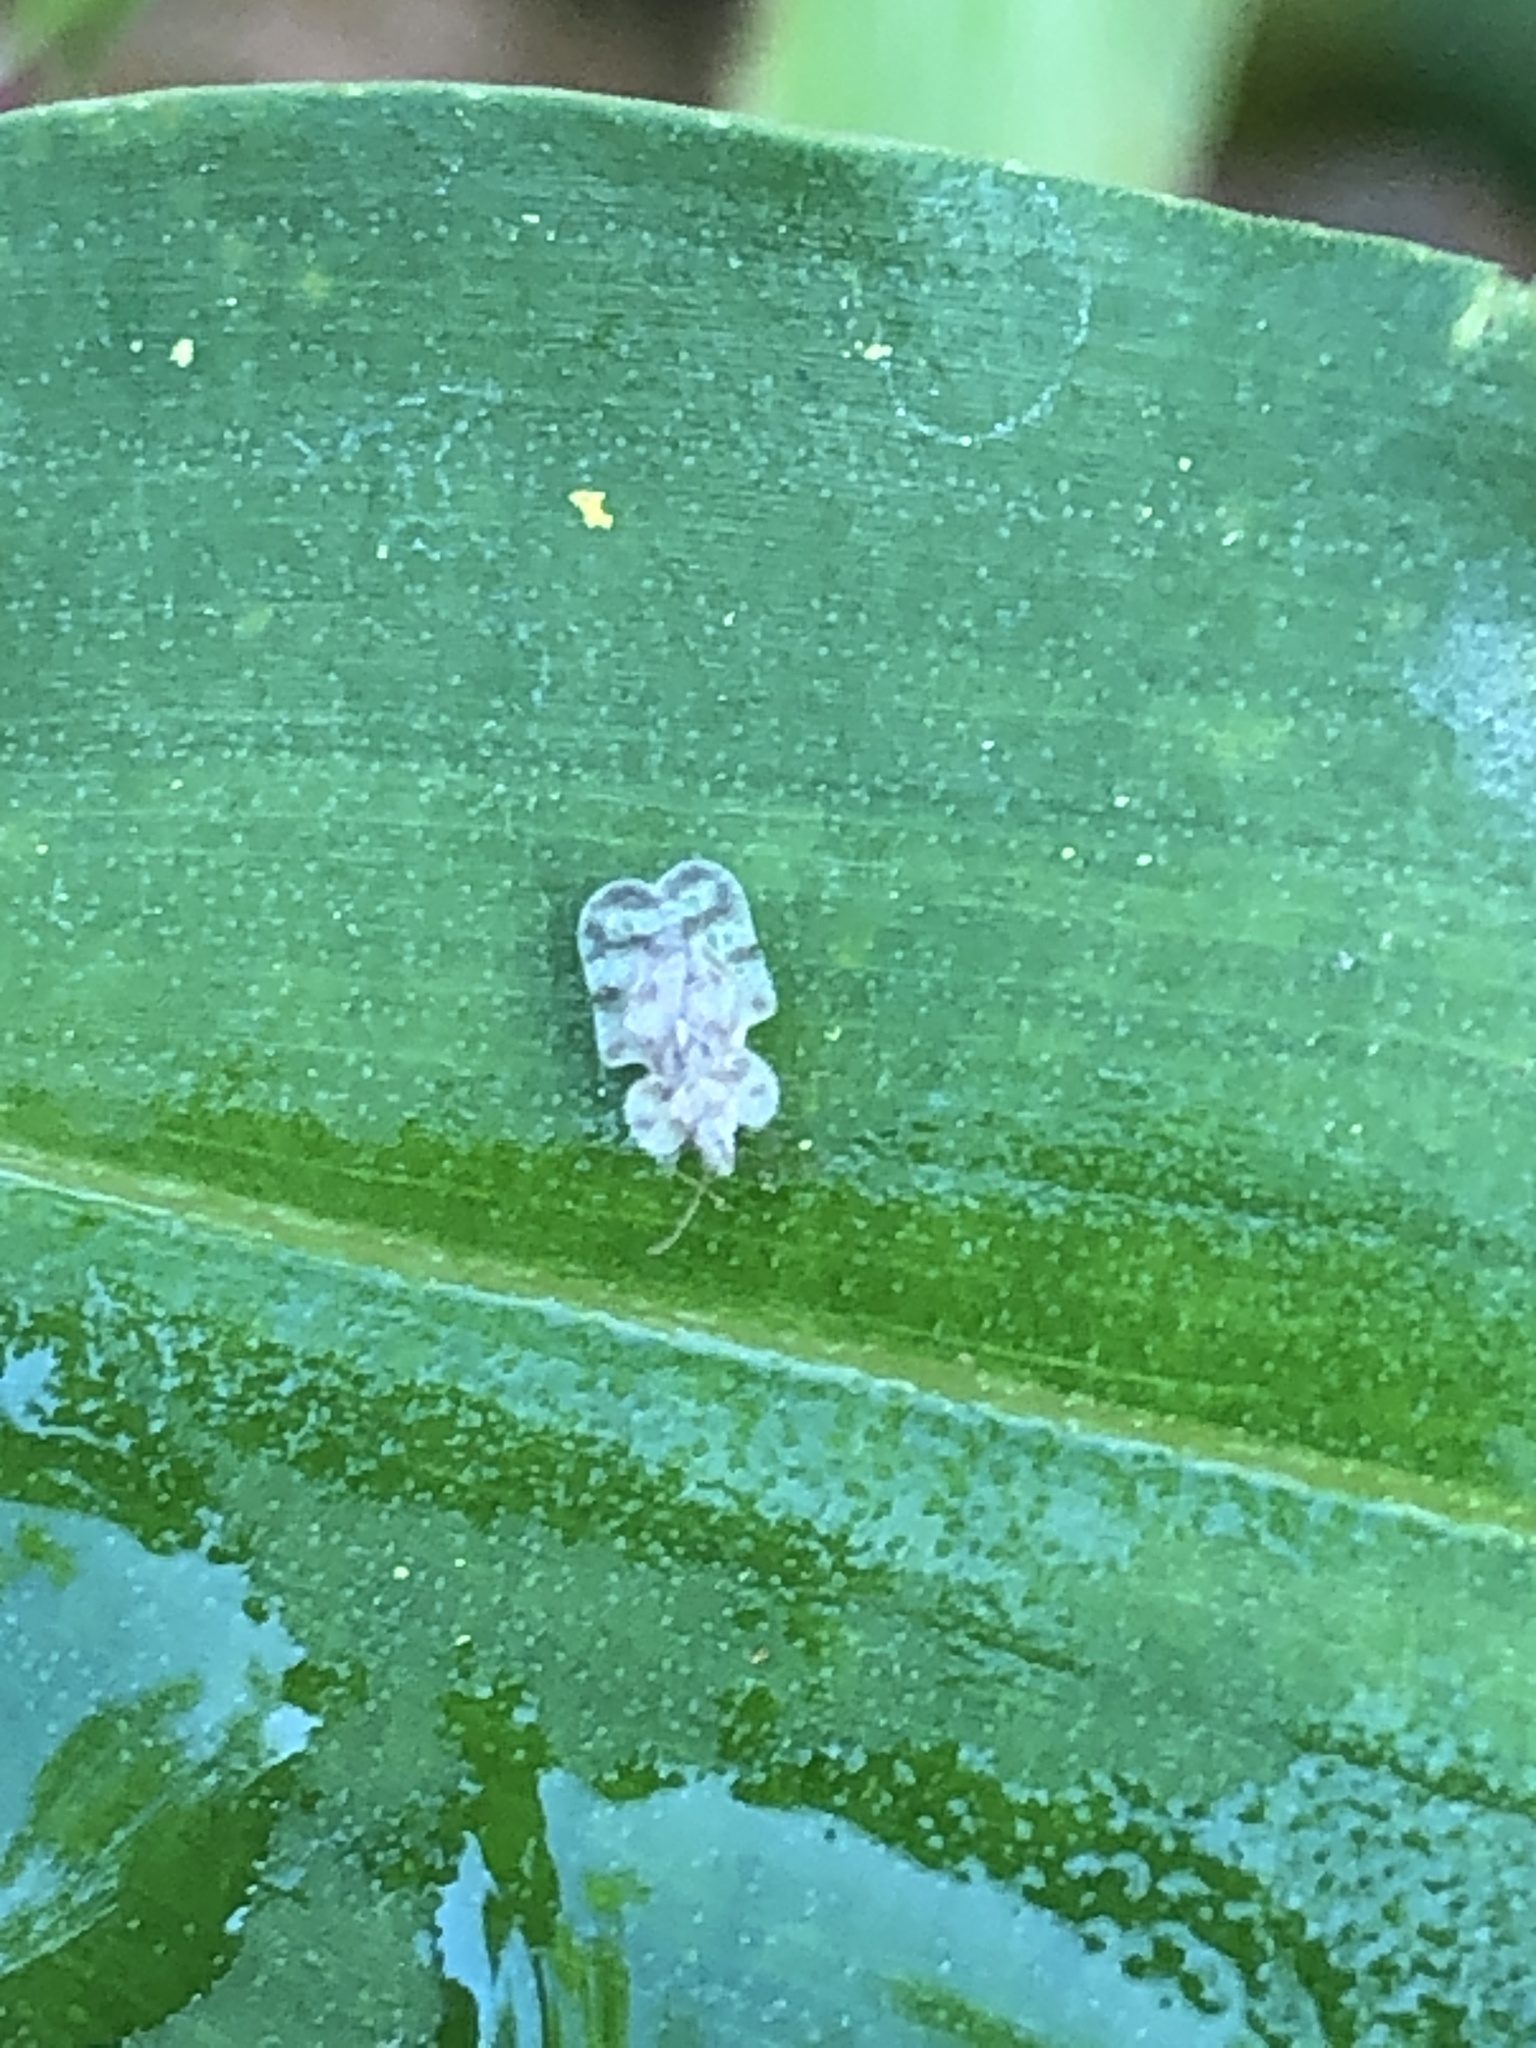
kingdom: Animalia
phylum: Arthropoda
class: Insecta
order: Hemiptera
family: Tingidae
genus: Corythucha
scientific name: Corythucha marmorata
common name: Chrysanthemum lace bug
